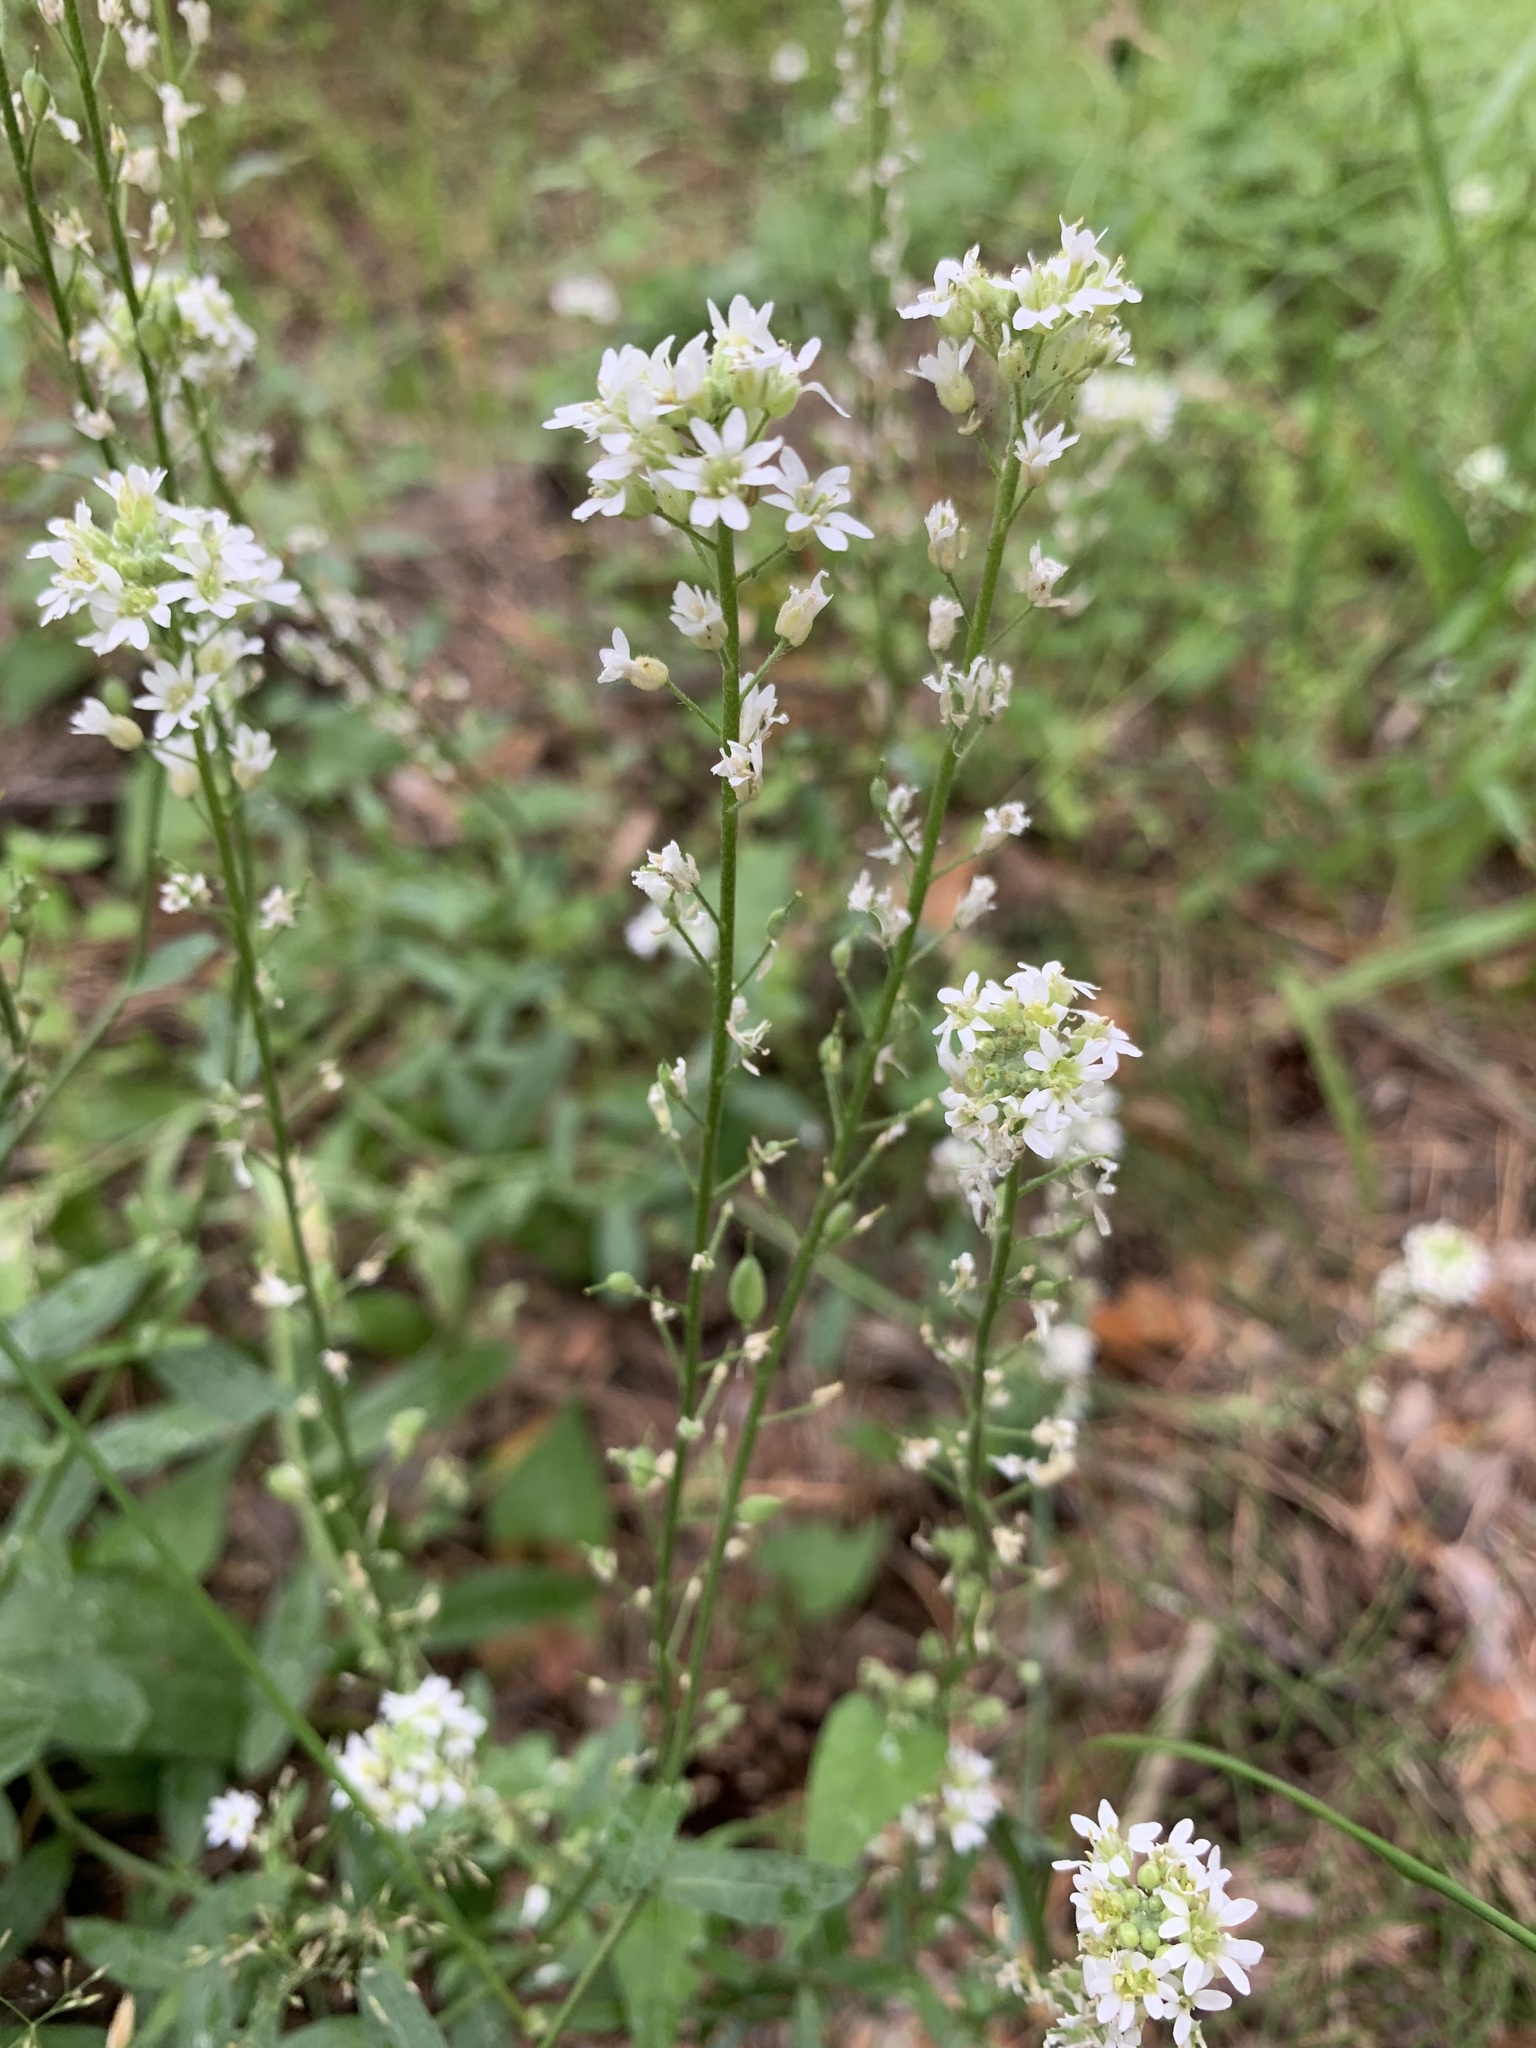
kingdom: Plantae
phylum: Tracheophyta
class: Magnoliopsida
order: Brassicales
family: Brassicaceae
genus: Berteroa
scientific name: Berteroa incana
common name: Hoary alison
